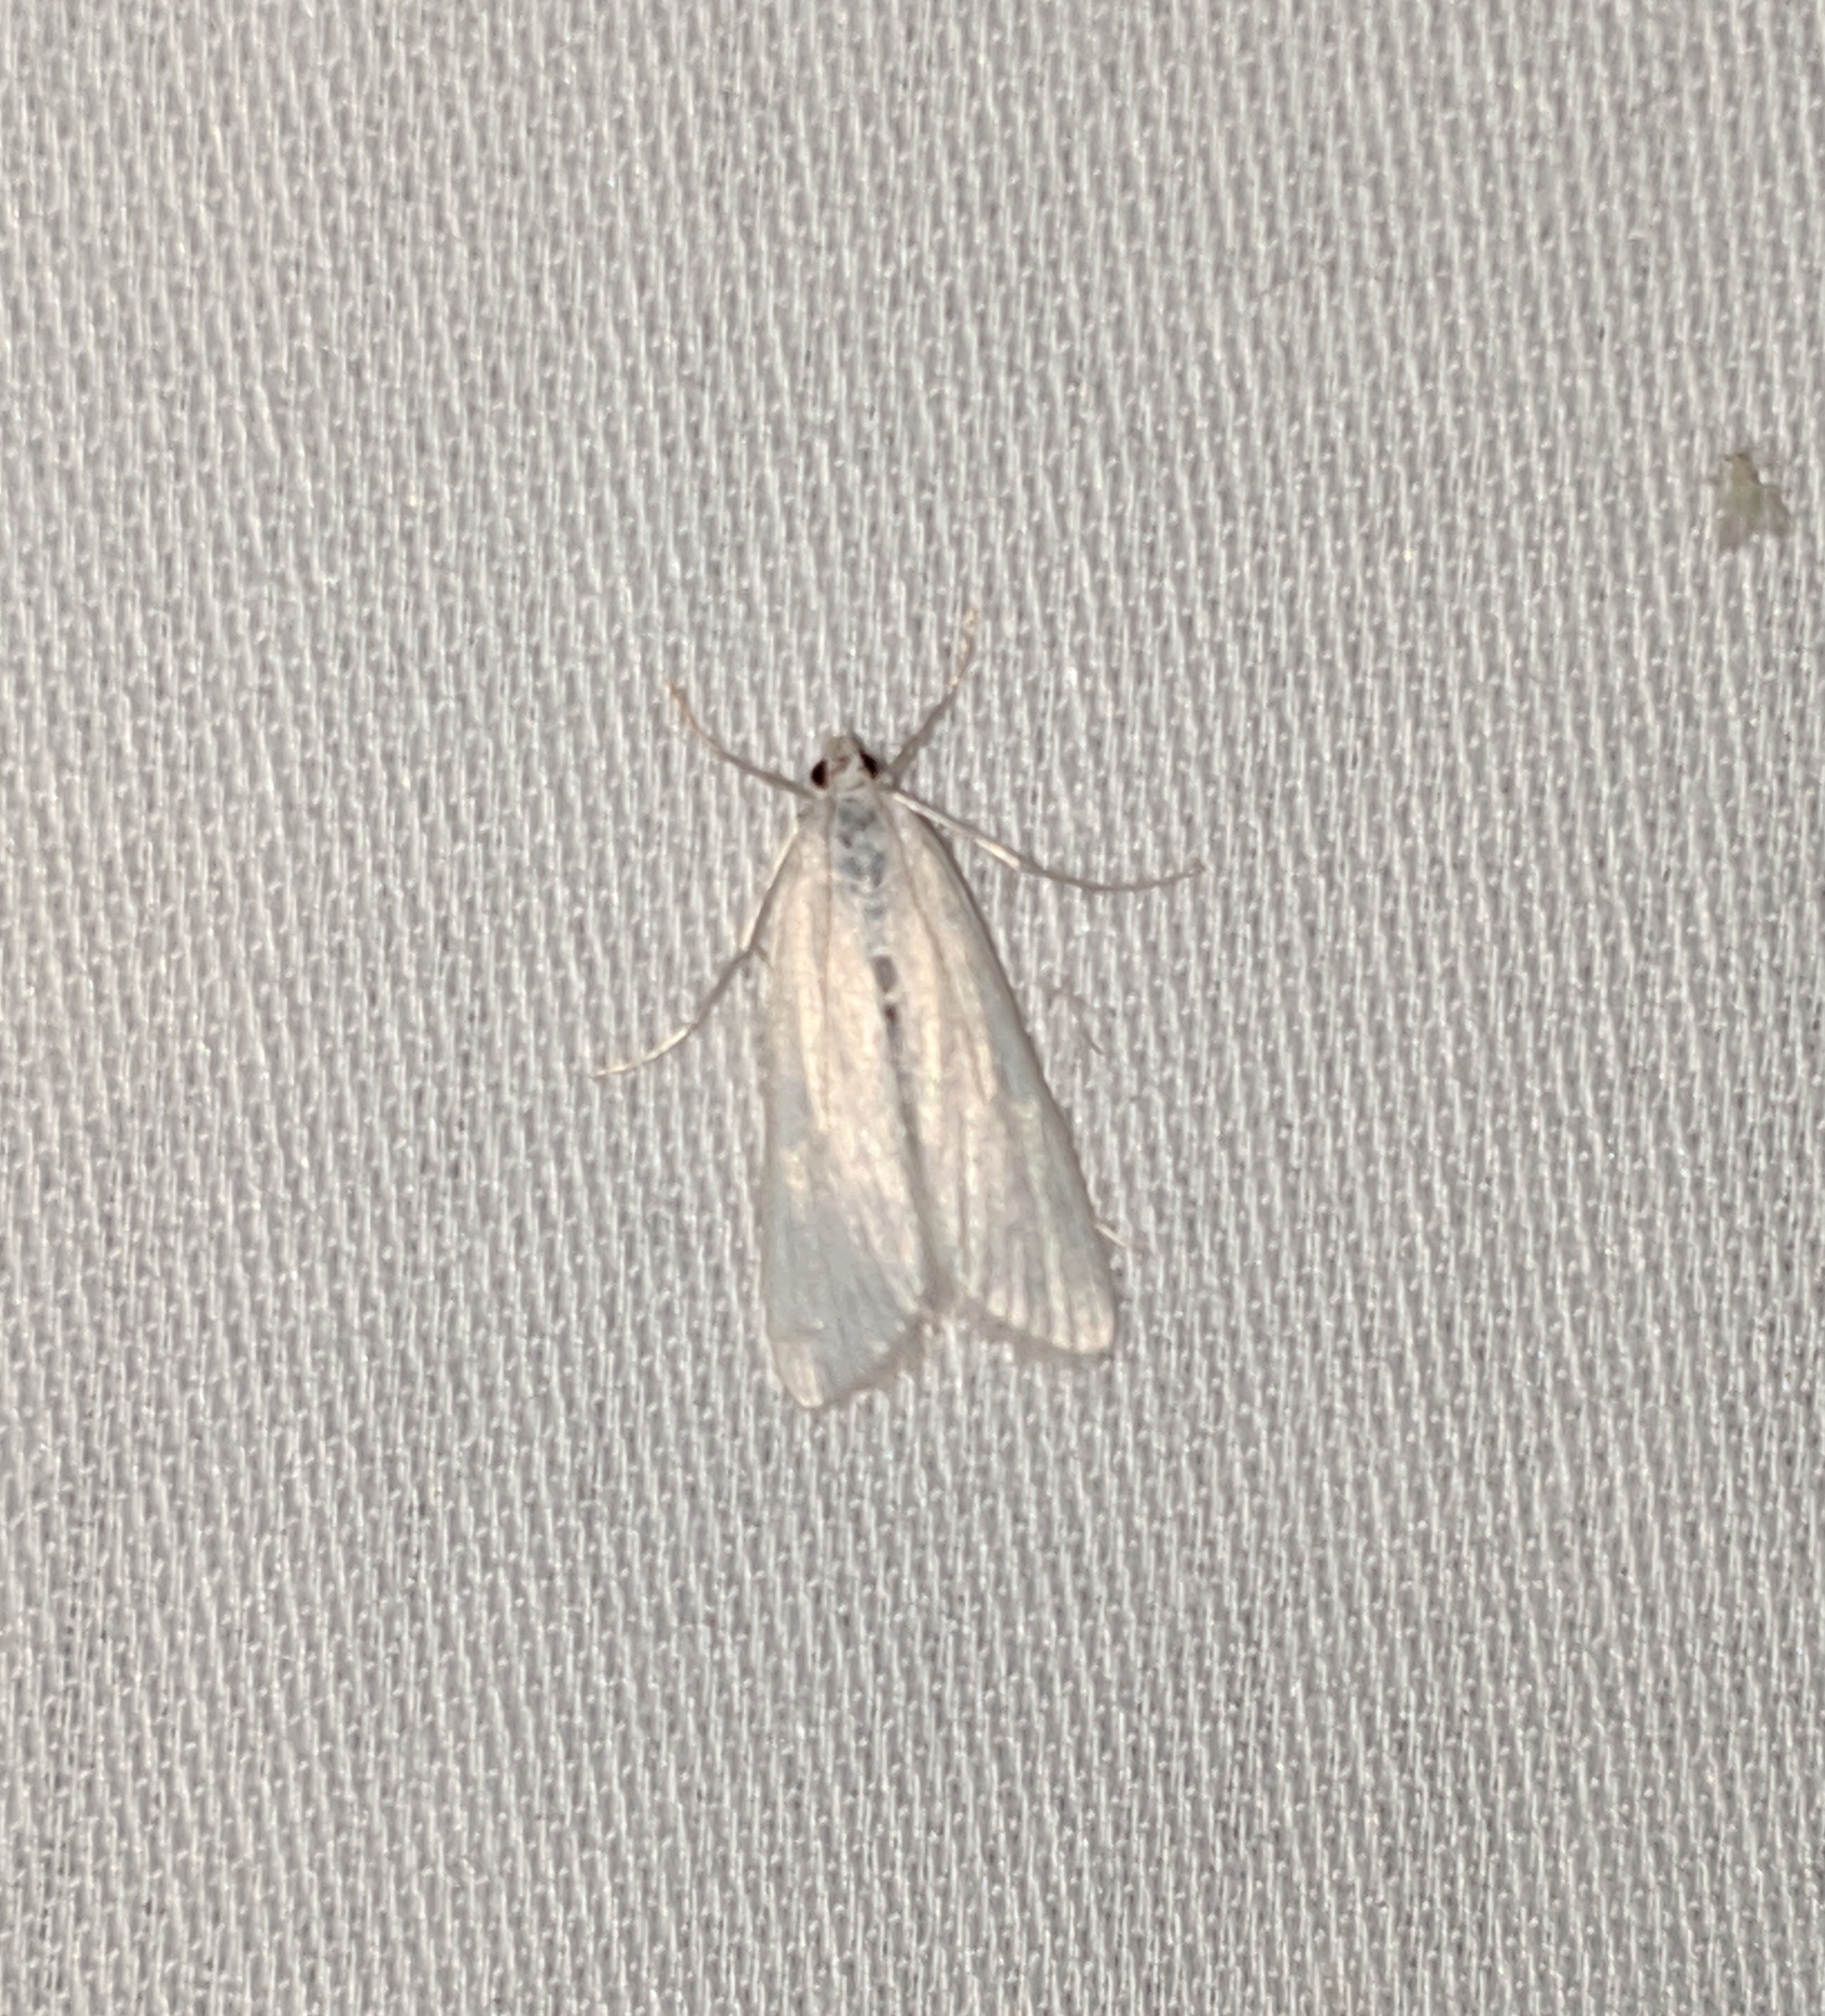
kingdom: Animalia
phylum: Arthropoda
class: Insecta
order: Lepidoptera
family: Crambidae
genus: Parapoynx
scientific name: Parapoynx allionealis
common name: Bladderwort casemaker
